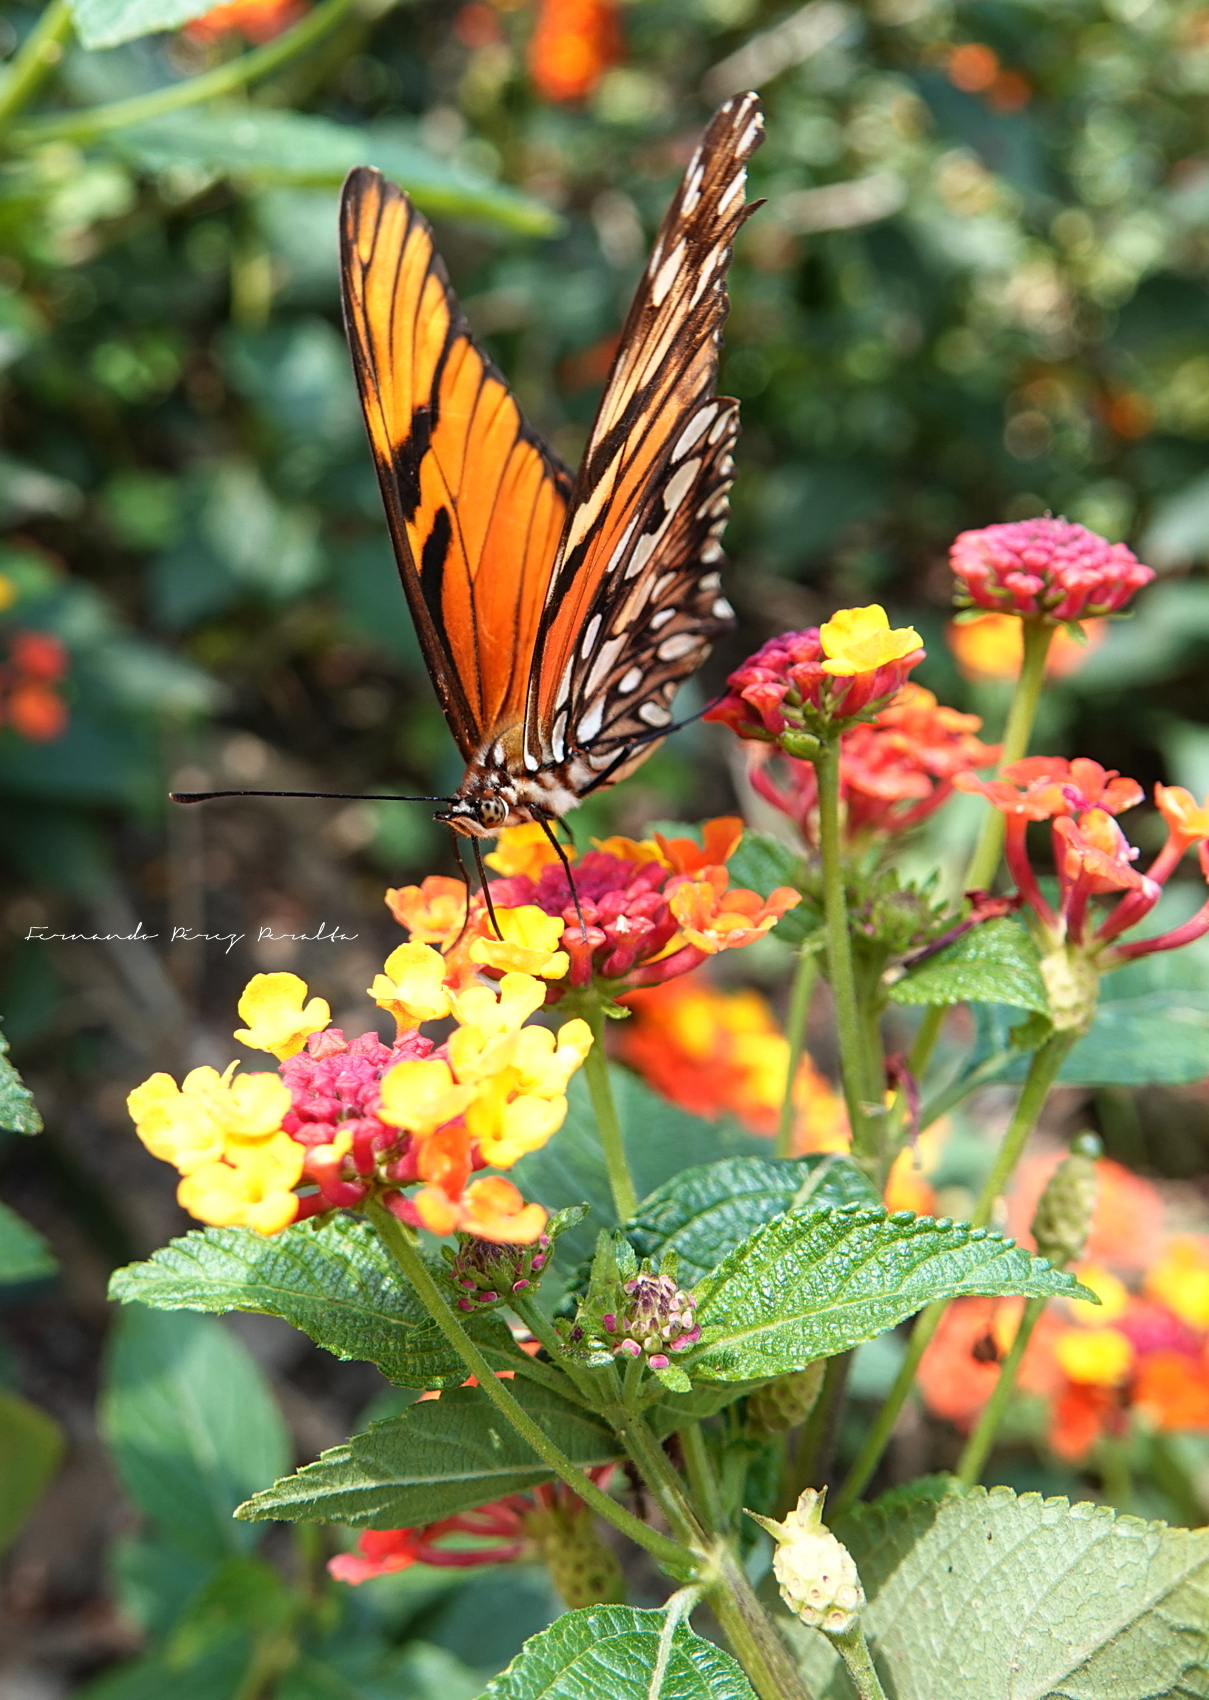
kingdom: Animalia
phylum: Arthropoda
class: Insecta
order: Lepidoptera
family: Nymphalidae
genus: Dione
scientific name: Dione juno
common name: Juno silverspot
